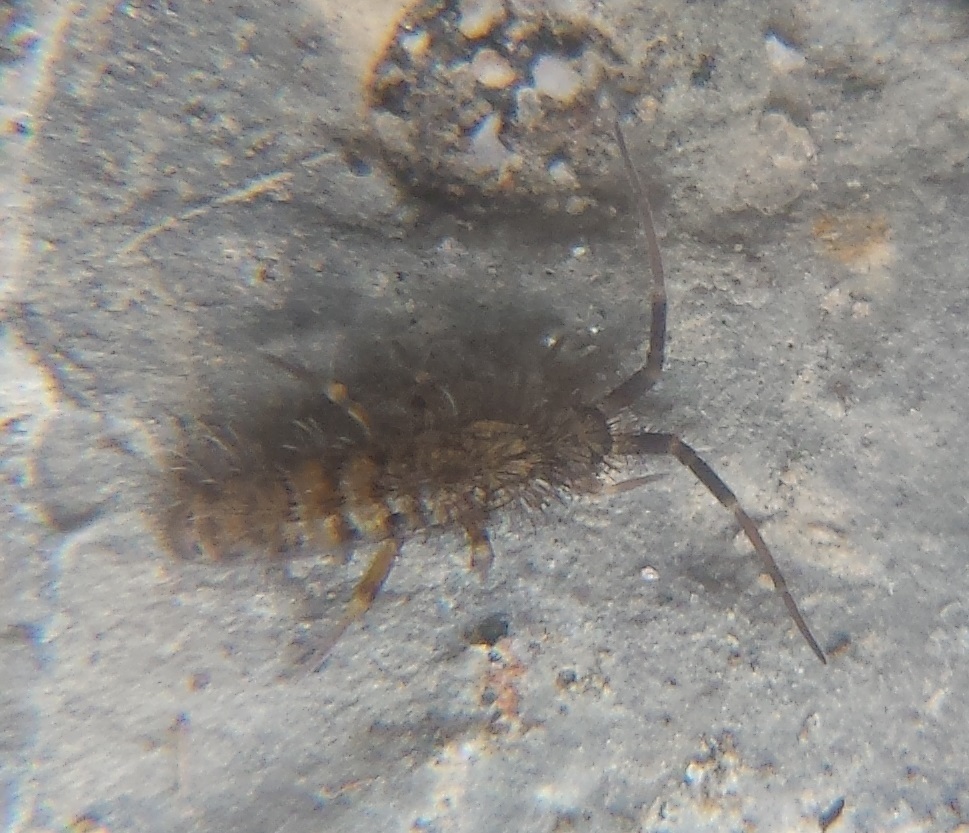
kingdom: Animalia
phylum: Arthropoda
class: Collembola
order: Entomobryomorpha
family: Orchesellidae
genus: Orchesella
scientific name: Orchesella villosa
